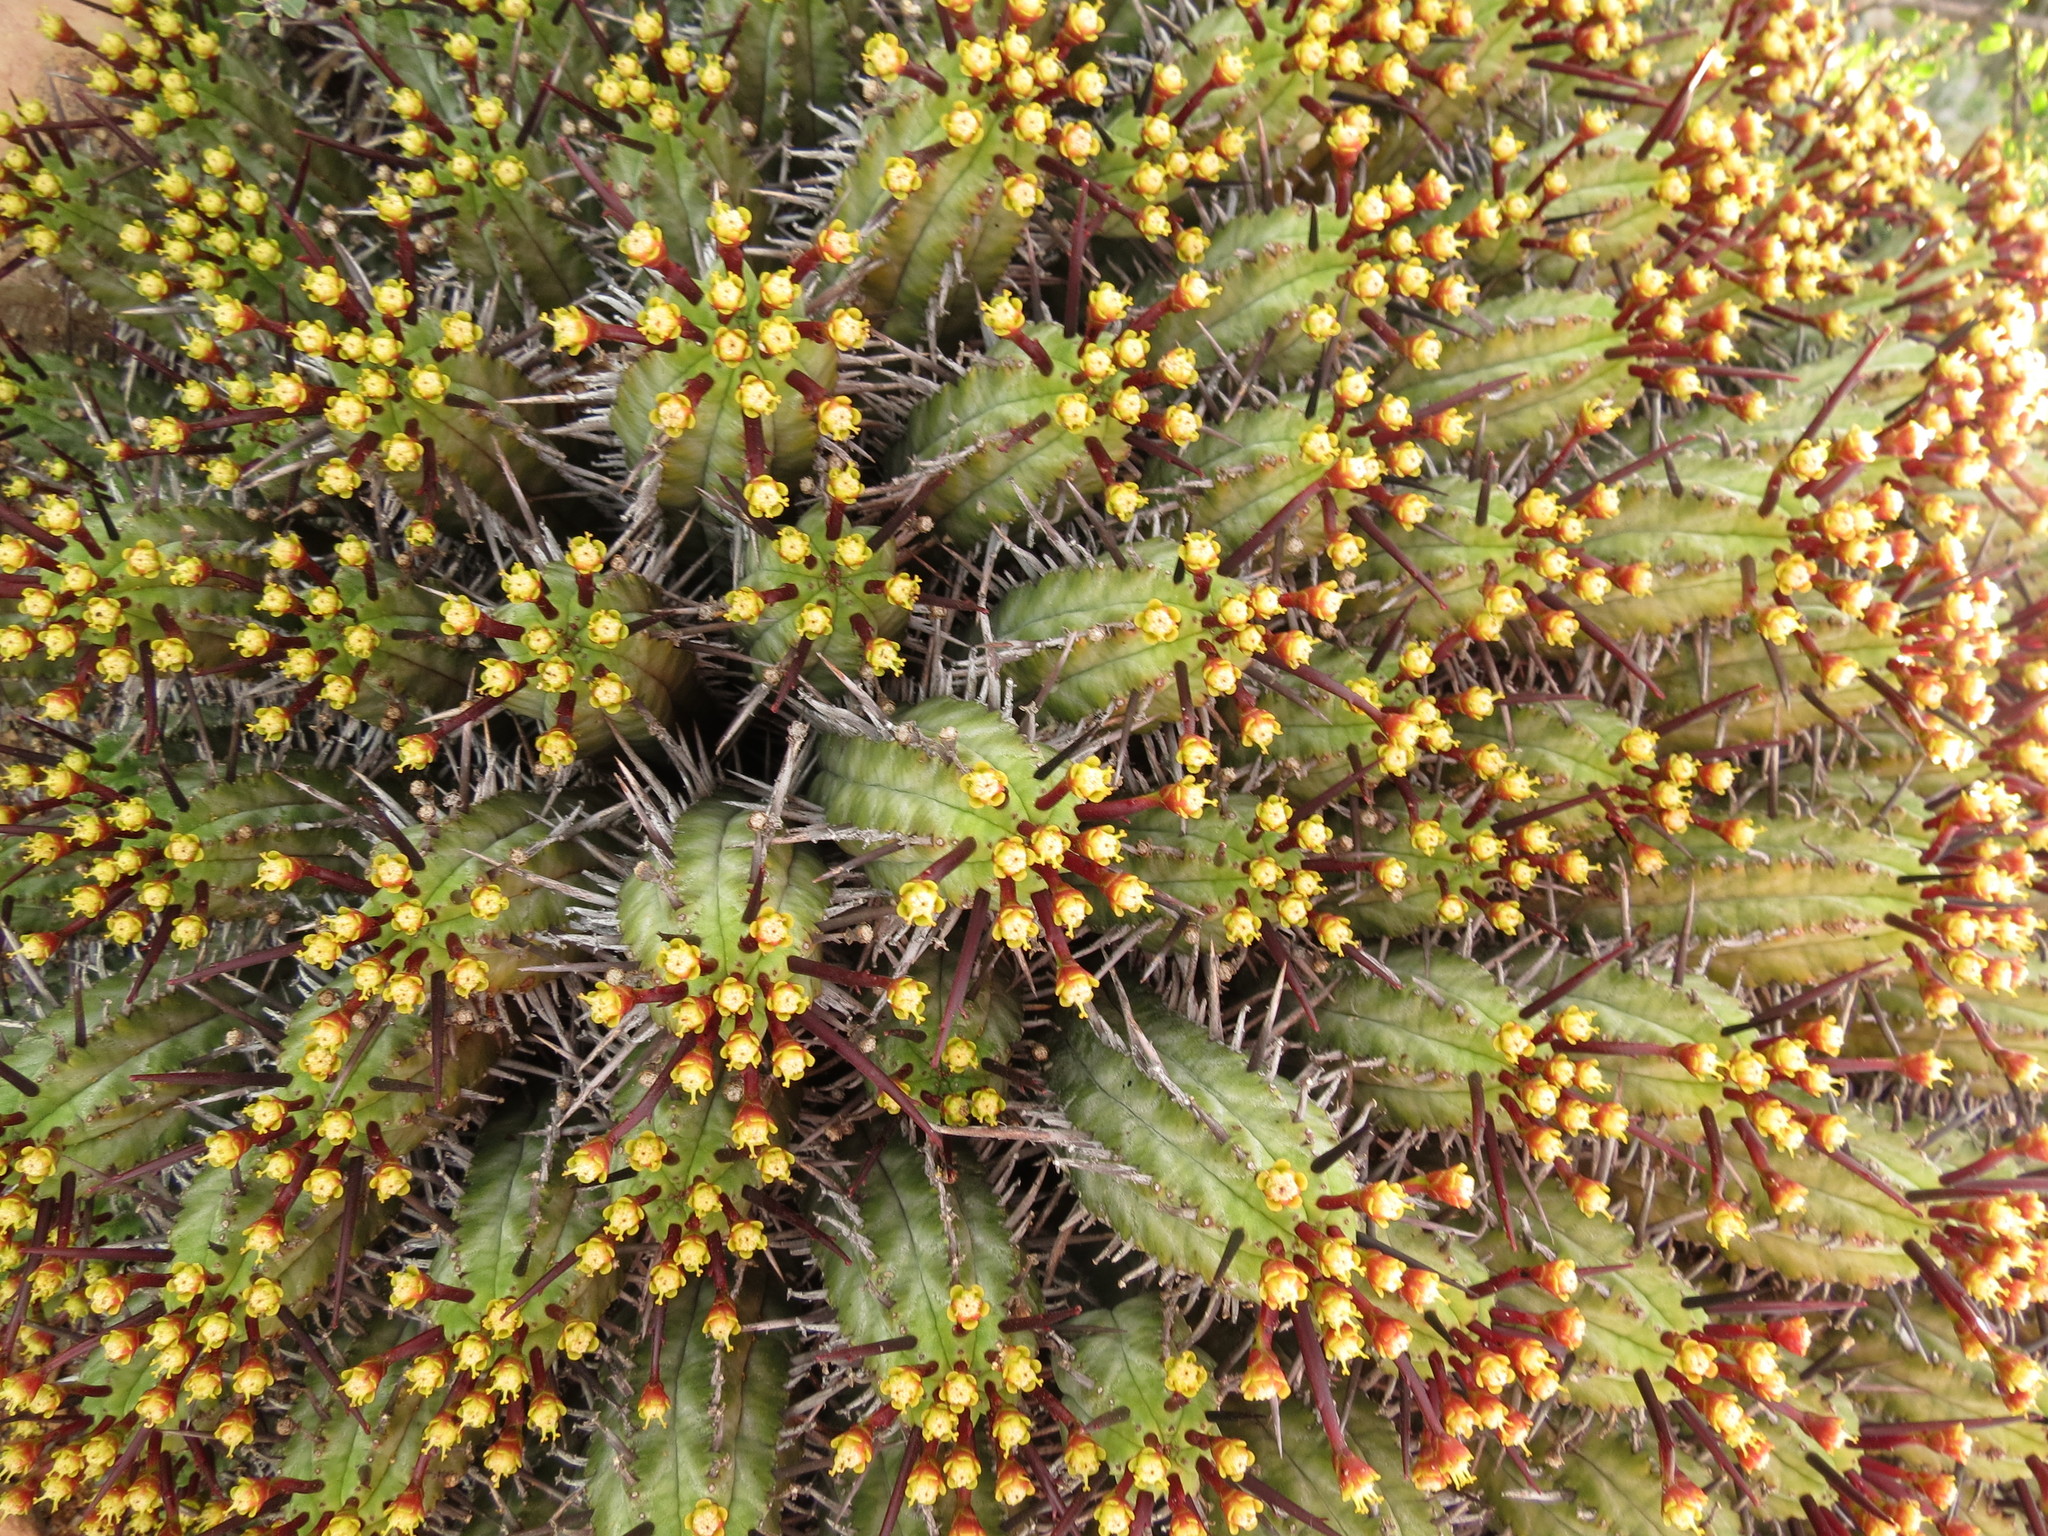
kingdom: Plantae
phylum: Tracheophyta
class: Magnoliopsida
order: Malpighiales
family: Euphorbiaceae
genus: Euphorbia
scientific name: Euphorbia heptagona
